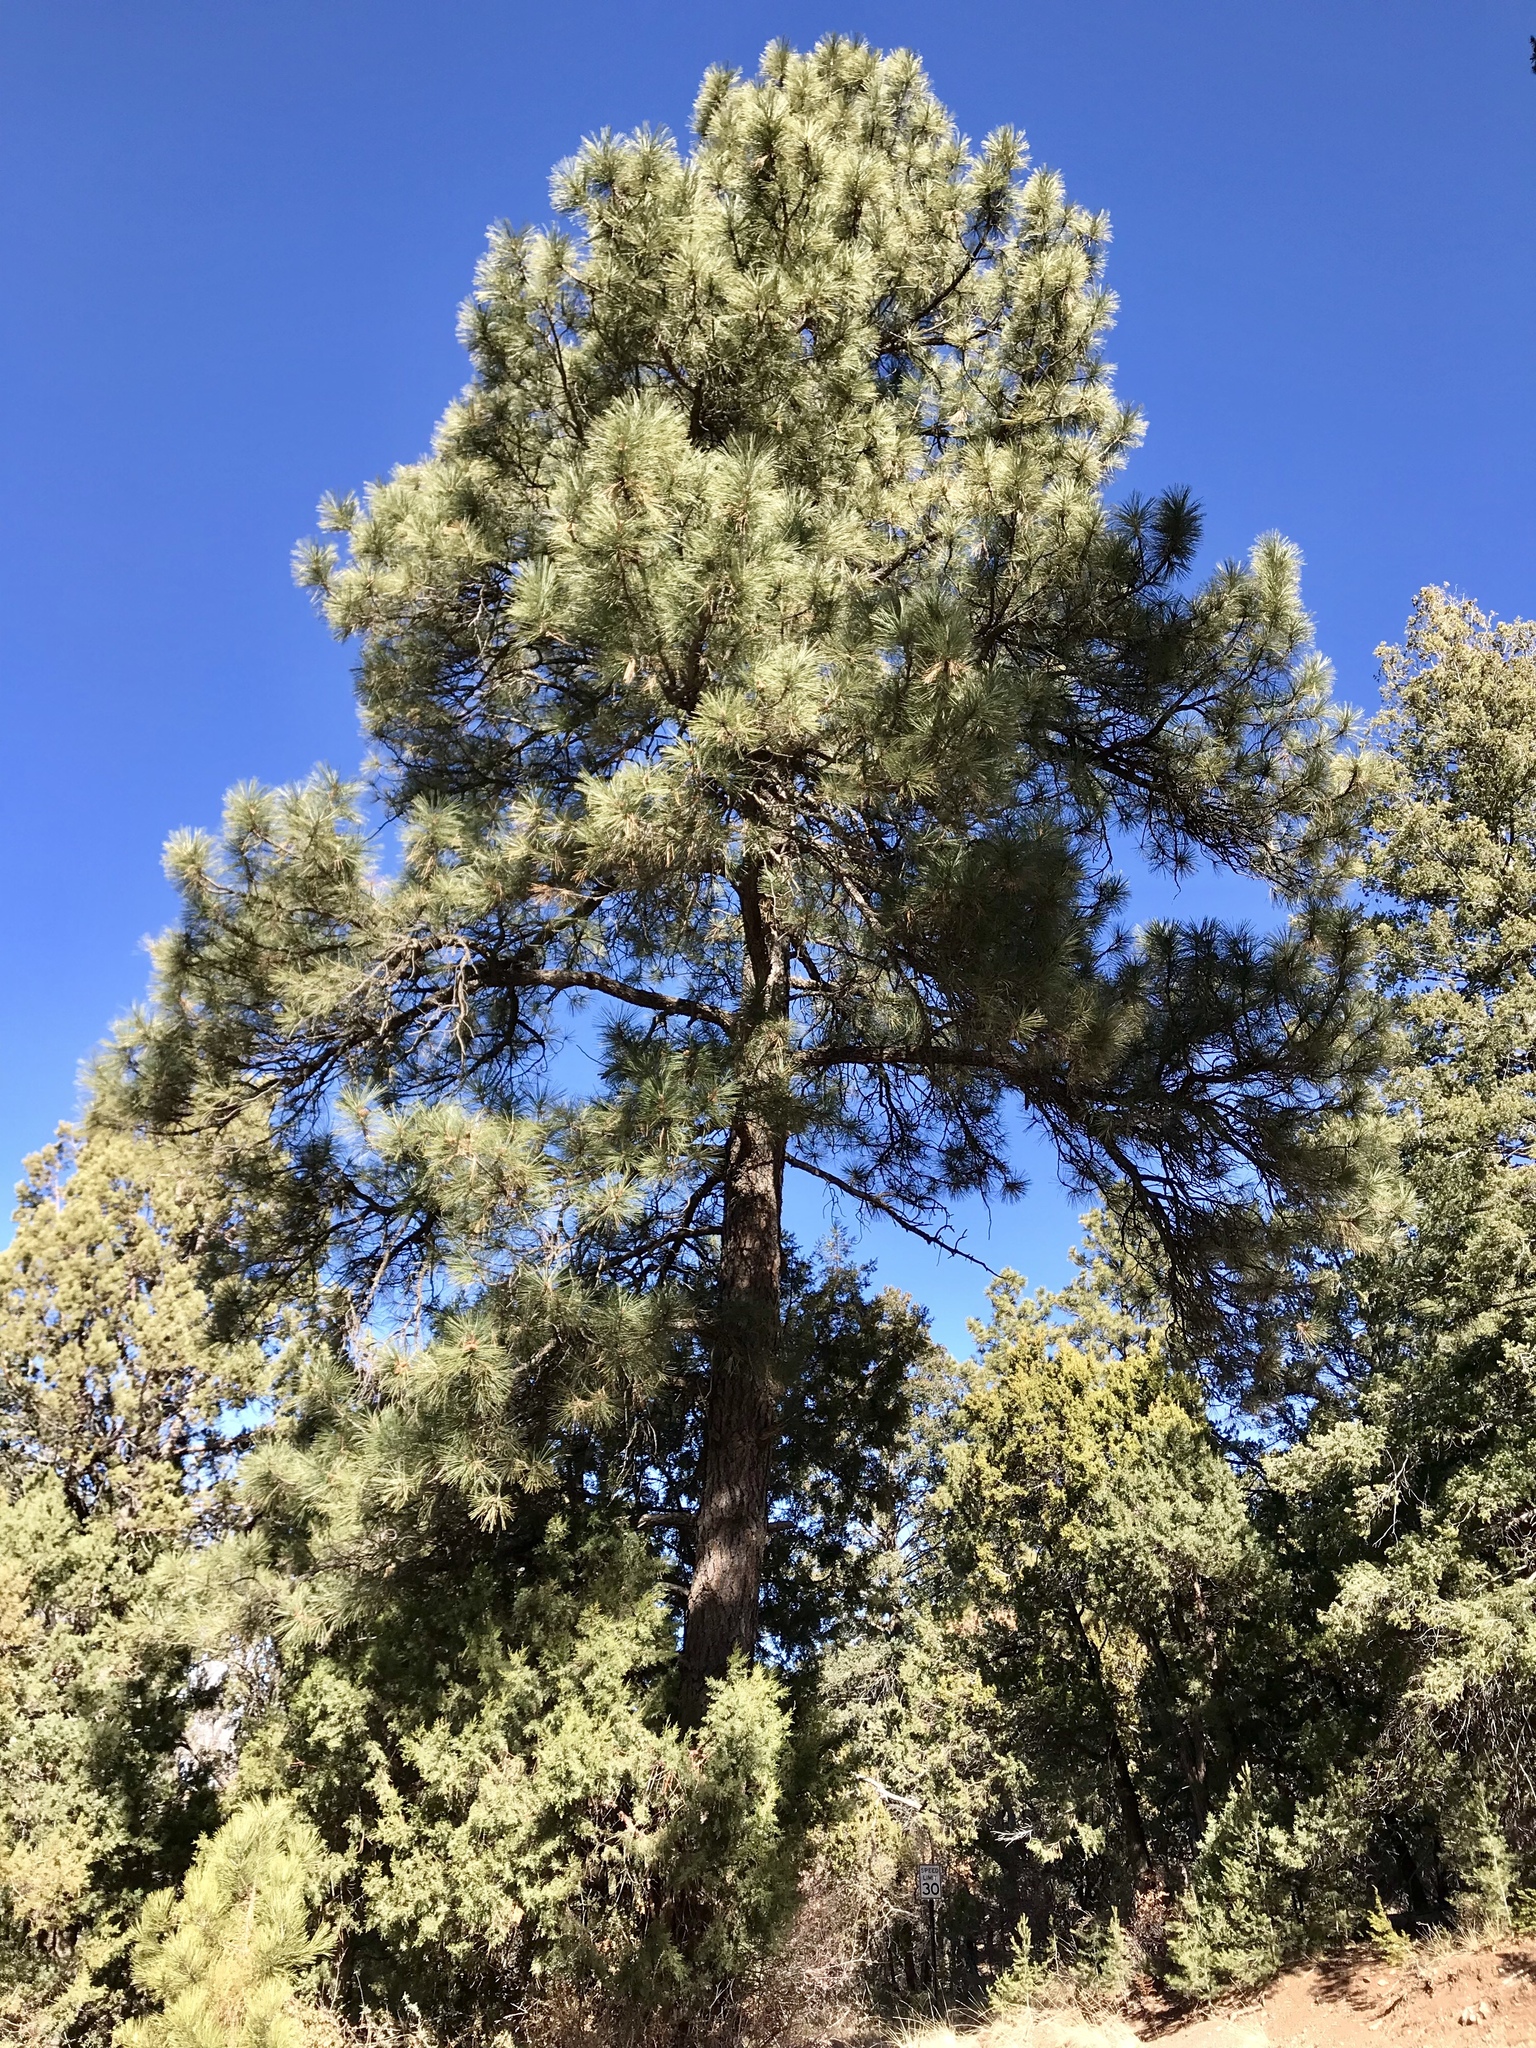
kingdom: Plantae
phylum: Tracheophyta
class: Pinopsida
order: Pinales
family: Pinaceae
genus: Pinus
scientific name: Pinus ponderosa
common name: Western yellow-pine
